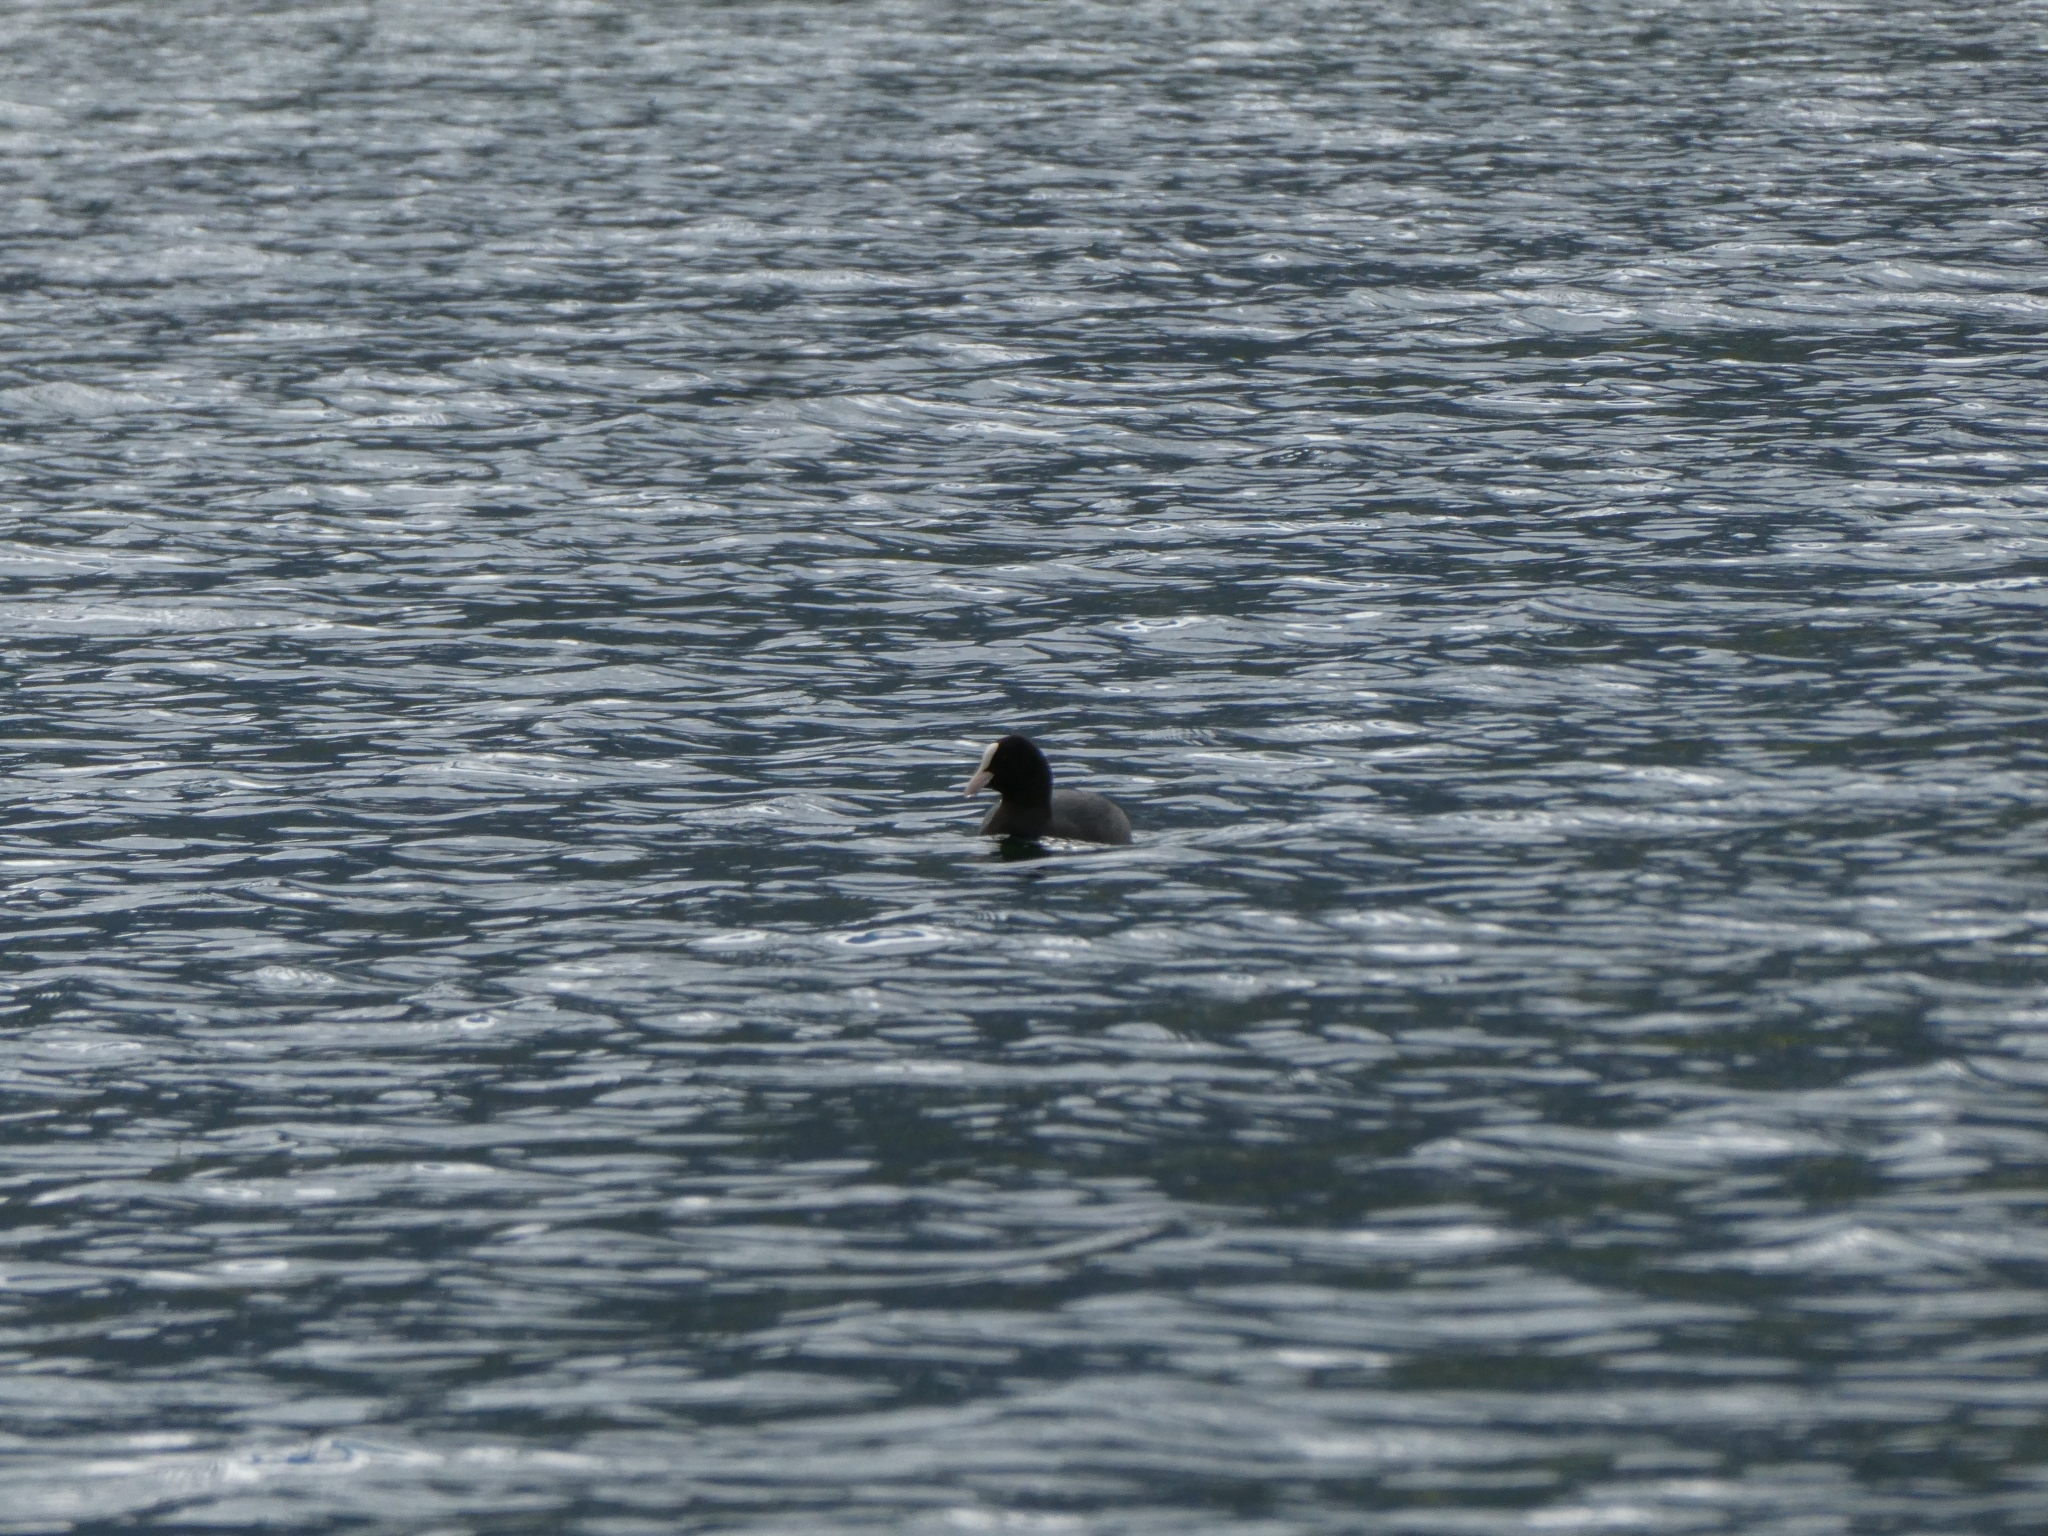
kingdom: Animalia
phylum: Chordata
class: Aves
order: Gruiformes
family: Rallidae
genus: Fulica
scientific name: Fulica atra
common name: Eurasian coot
